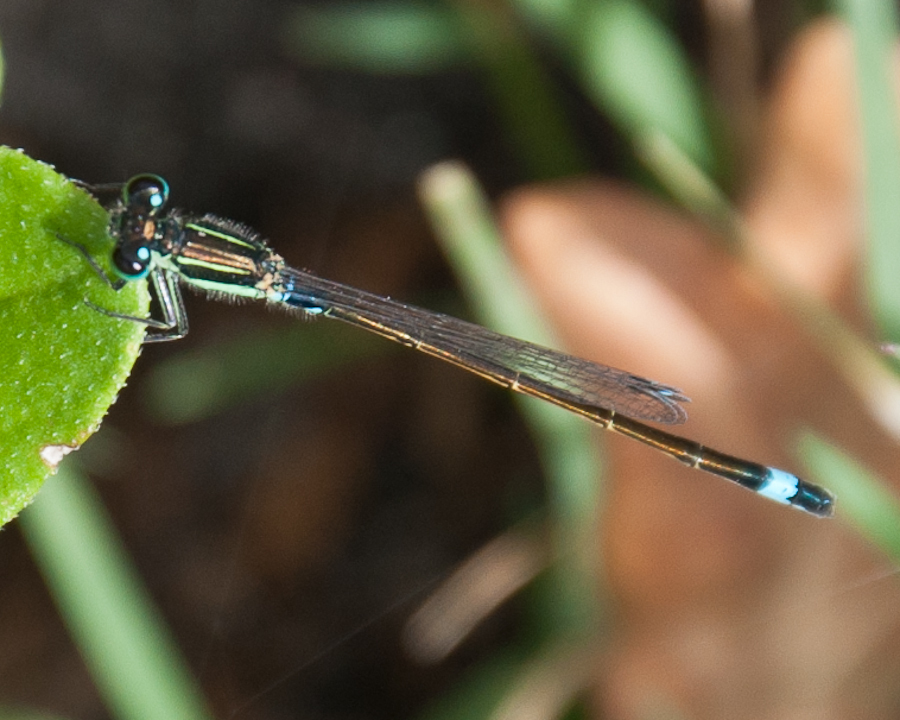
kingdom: Animalia
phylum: Arthropoda
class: Insecta
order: Odonata
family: Coenagrionidae
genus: Ischnura
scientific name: Ischnura senegalensis
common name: Tropical bluetail
